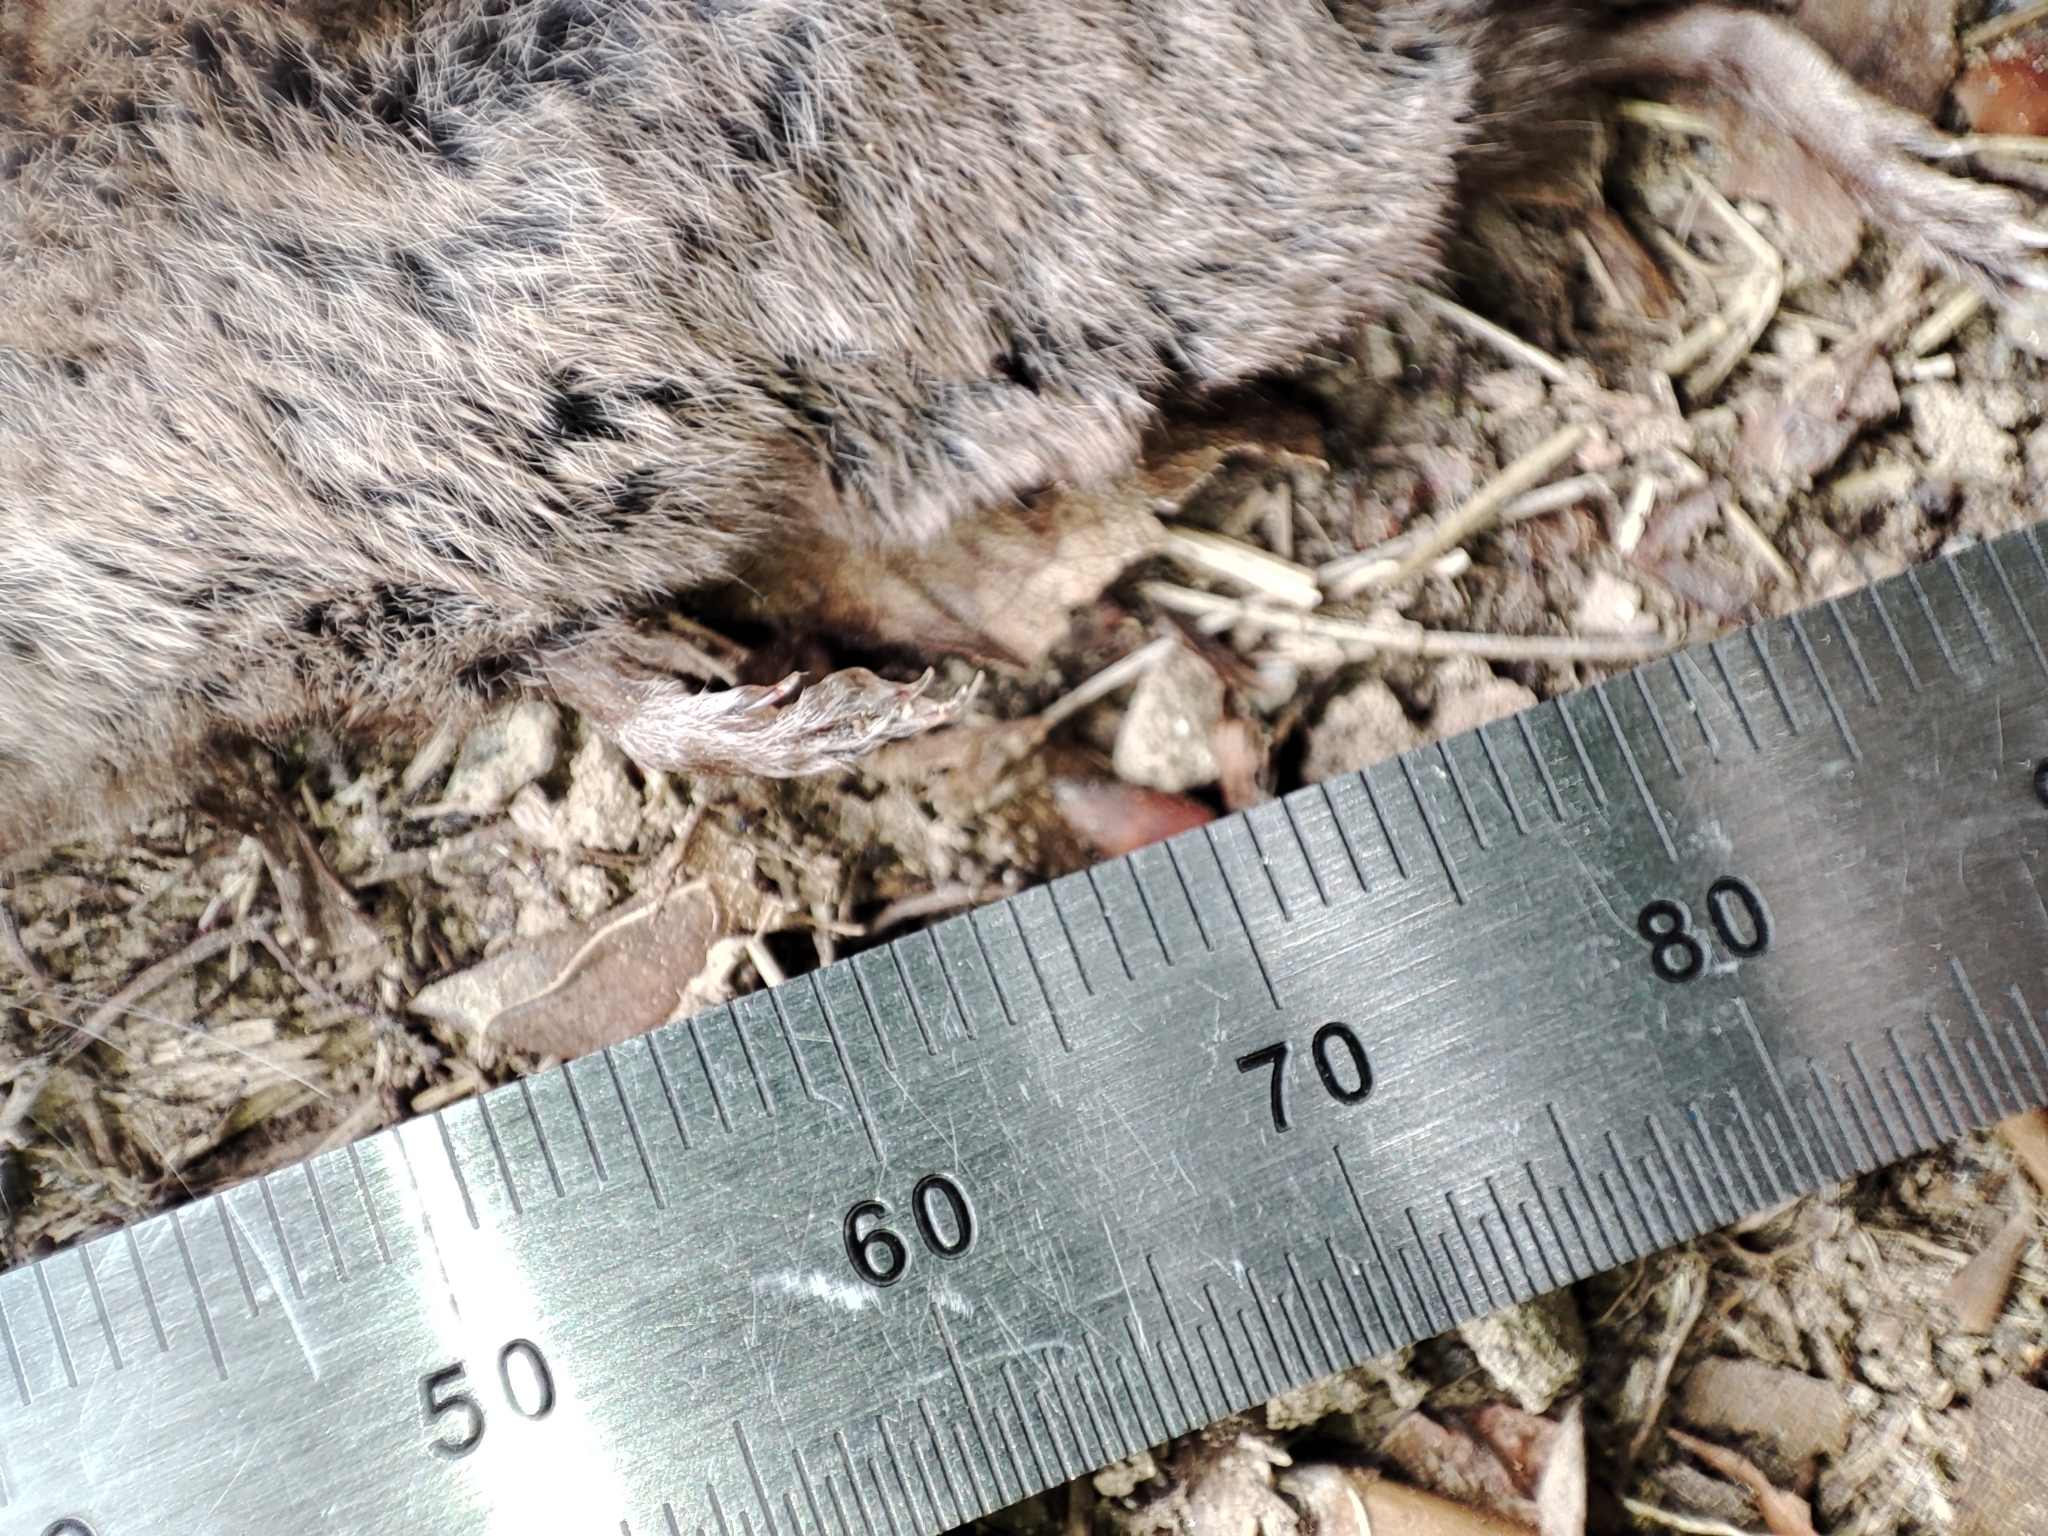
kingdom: Animalia
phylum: Chordata
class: Mammalia
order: Soricomorpha
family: Soricidae
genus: Sorex
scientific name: Sorex araneus
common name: Common shrew
